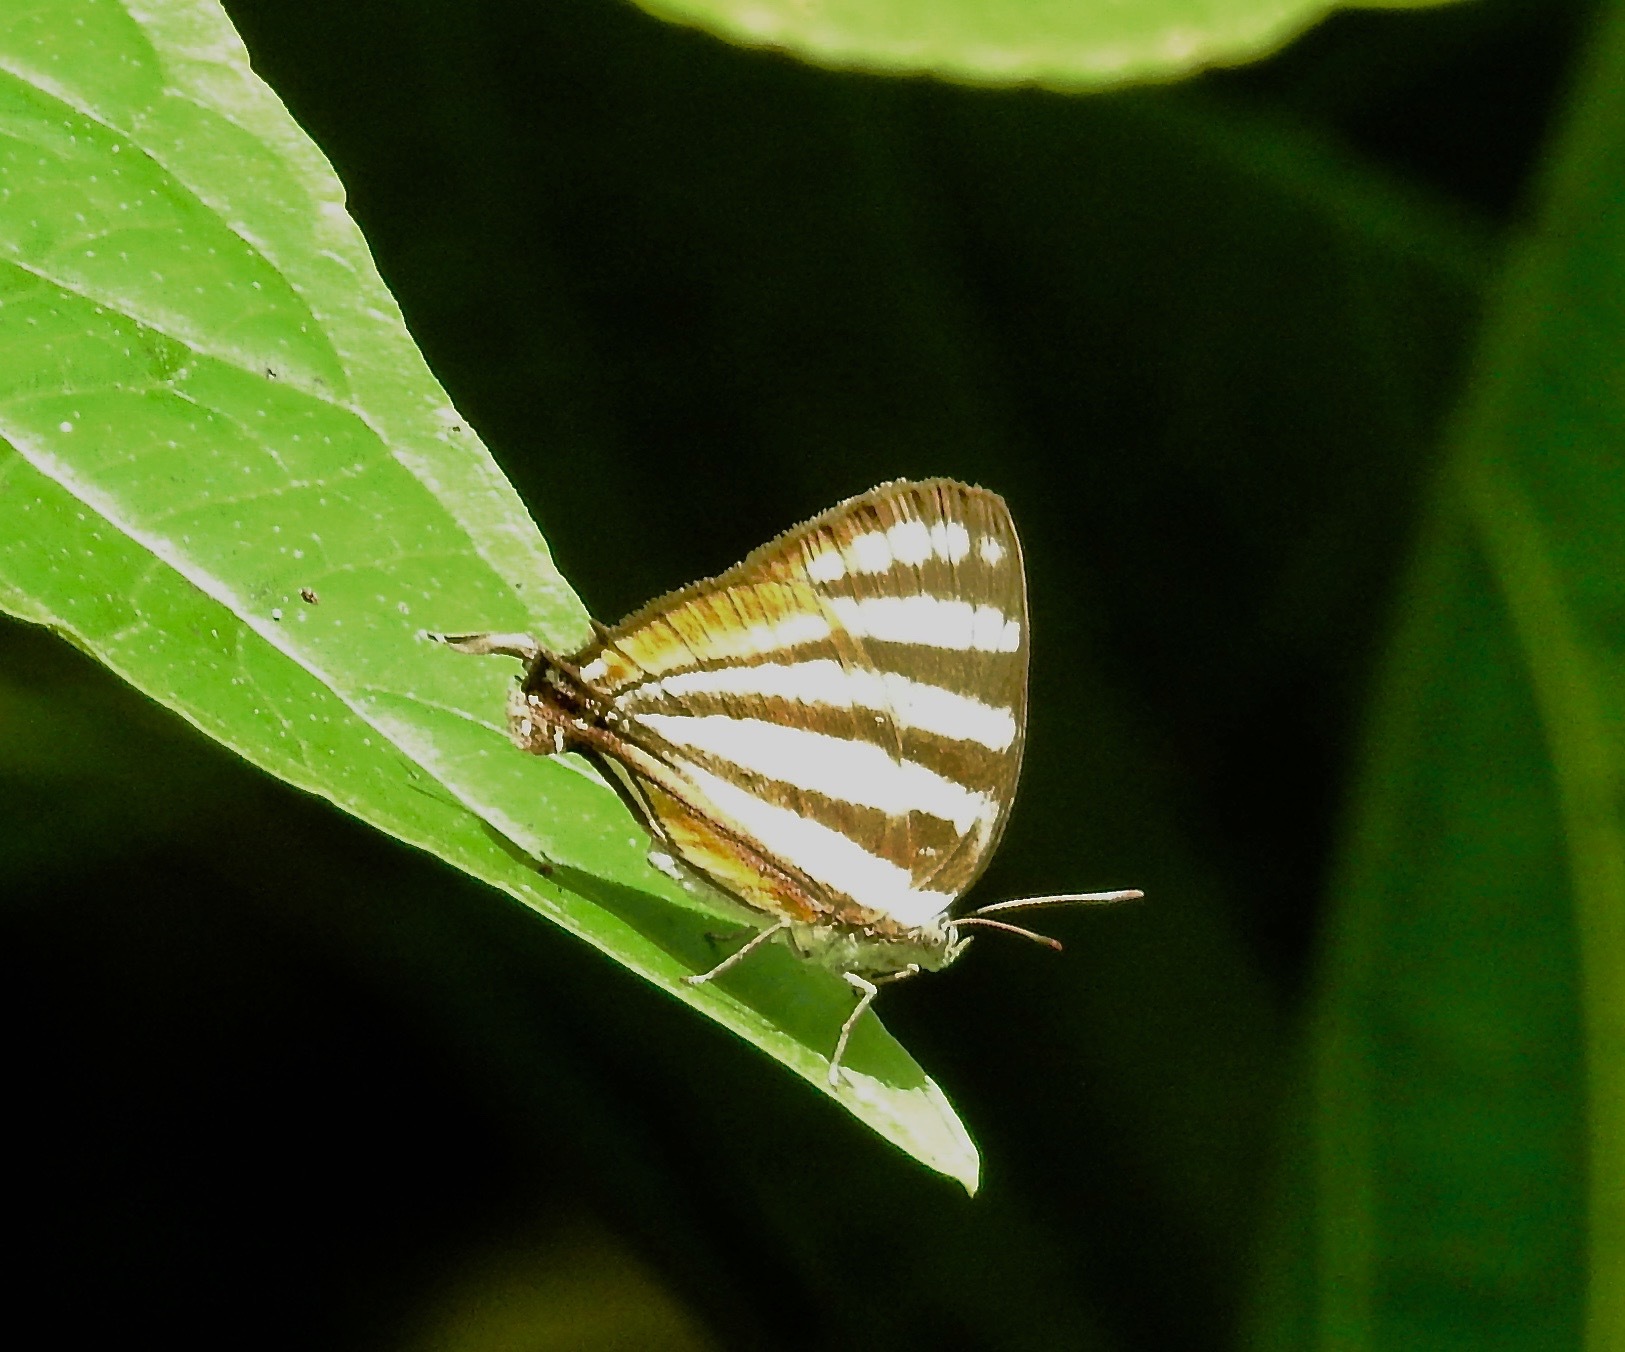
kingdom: Animalia
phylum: Arthropoda
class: Insecta
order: Lepidoptera
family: Lycaenidae
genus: Arawacus
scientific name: Arawacus lincoides
